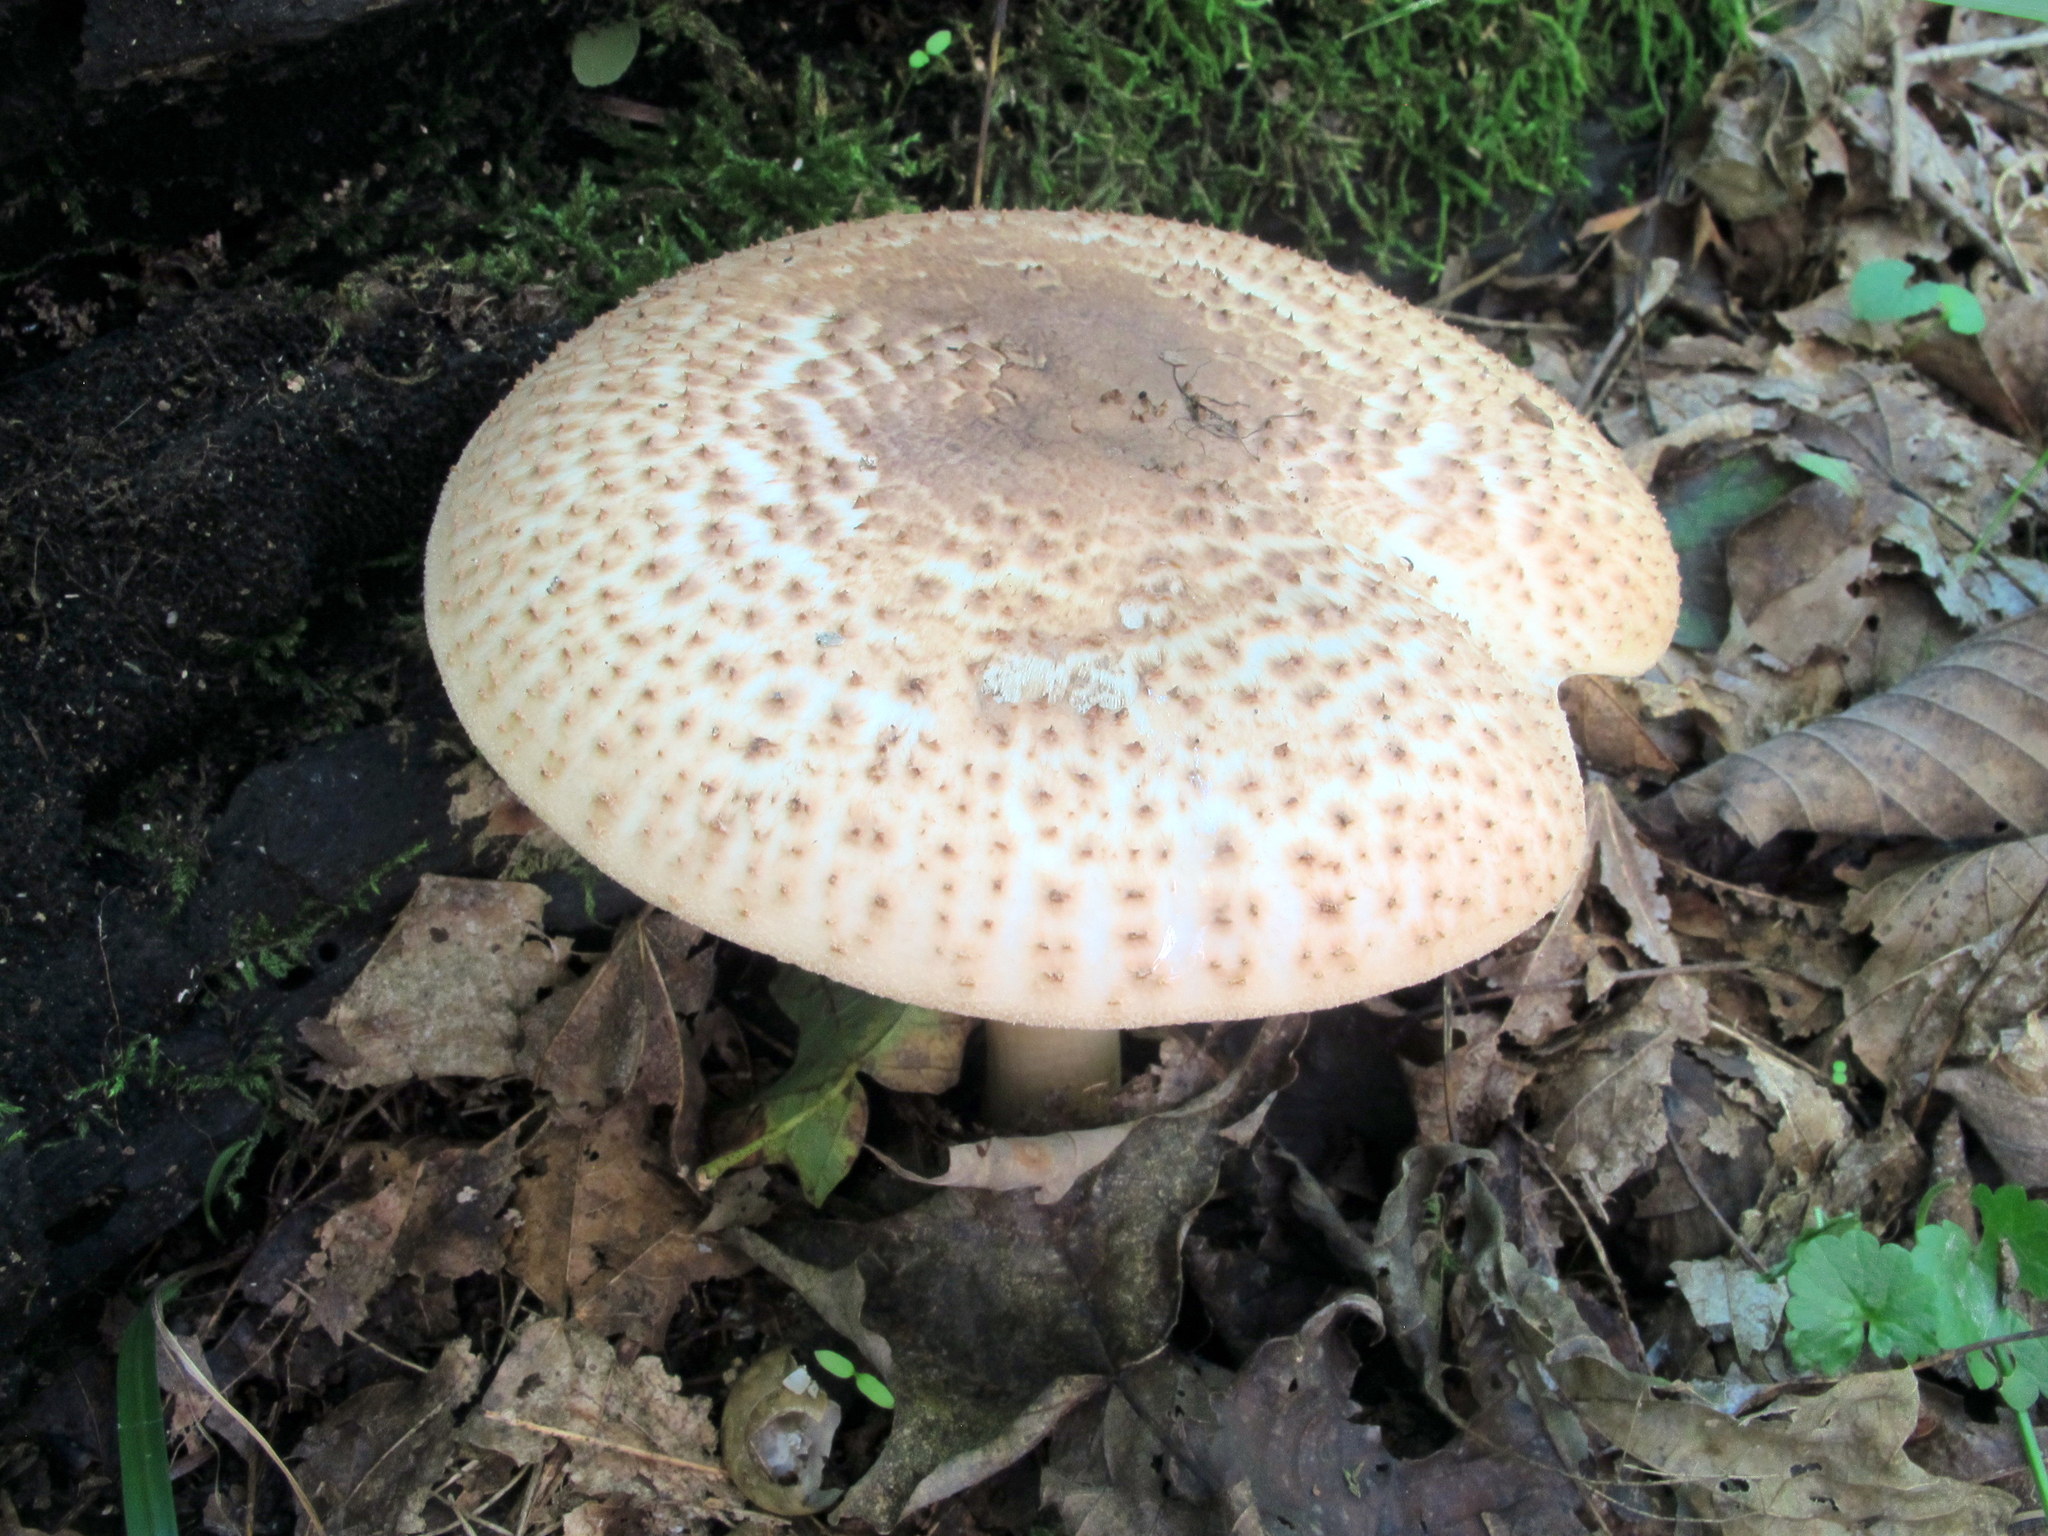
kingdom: Fungi
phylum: Basidiomycota
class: Agaricomycetes
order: Agaricales
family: Agaricaceae
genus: Echinoderma
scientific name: Echinoderma asperum
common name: Freckled dapperling
